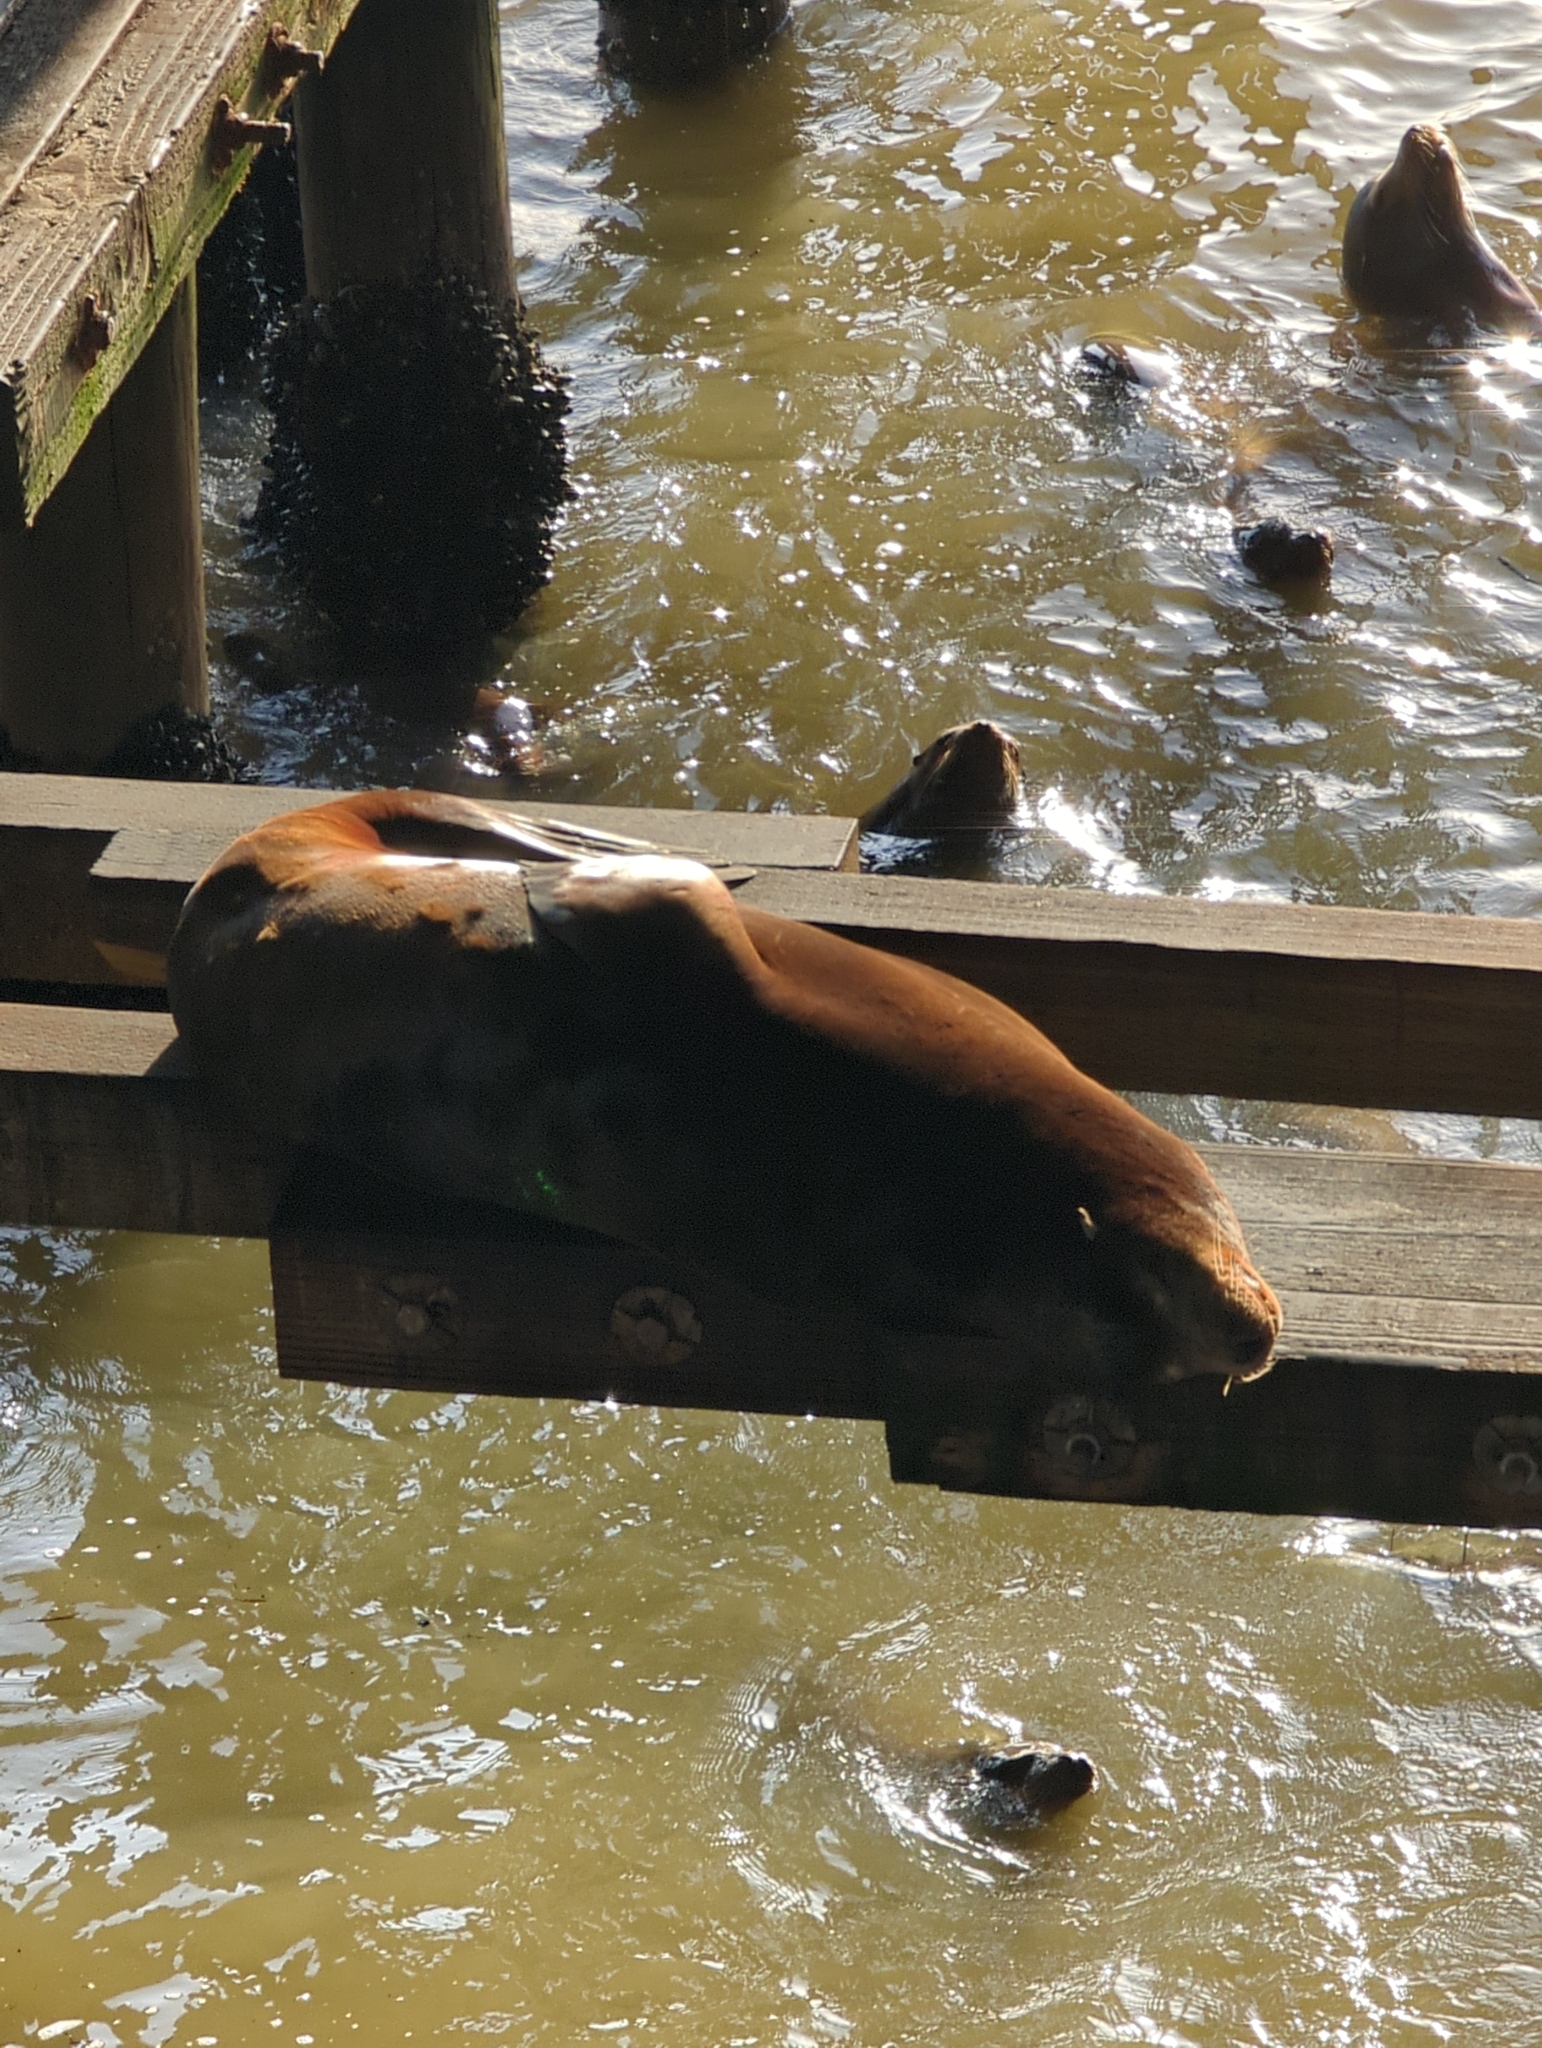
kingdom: Animalia
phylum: Chordata
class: Mammalia
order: Carnivora
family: Otariidae
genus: Zalophus
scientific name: Zalophus californianus
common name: California sea lion
